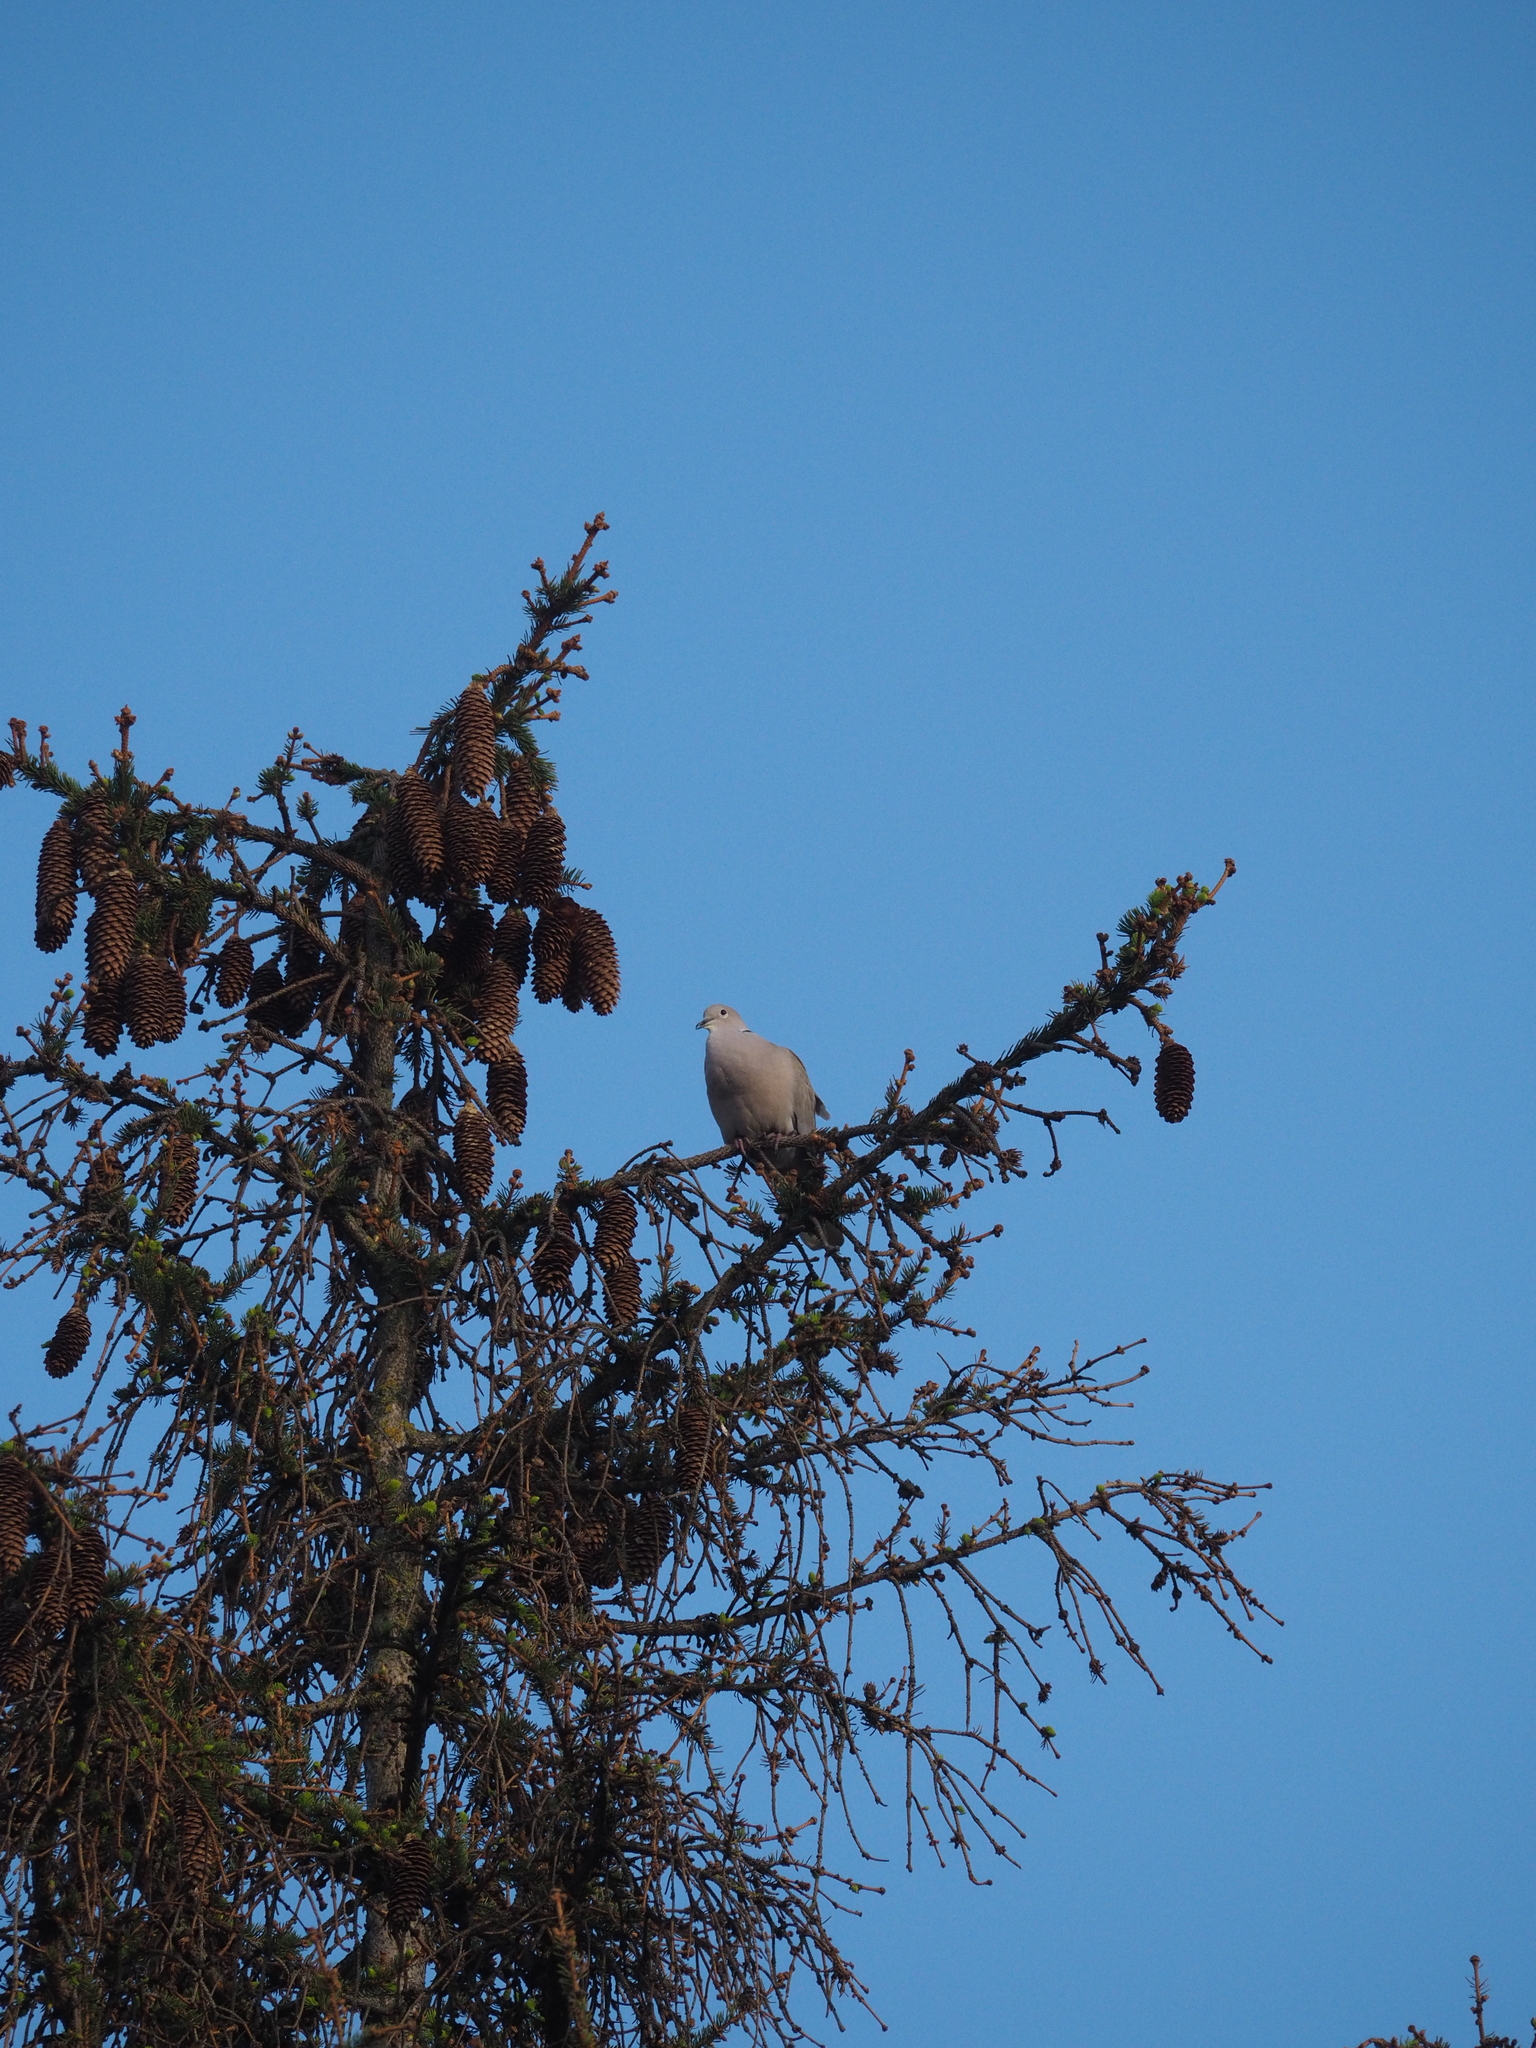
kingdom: Animalia
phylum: Chordata
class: Aves
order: Columbiformes
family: Columbidae
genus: Streptopelia
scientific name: Streptopelia decaocto
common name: Eurasian collared dove
